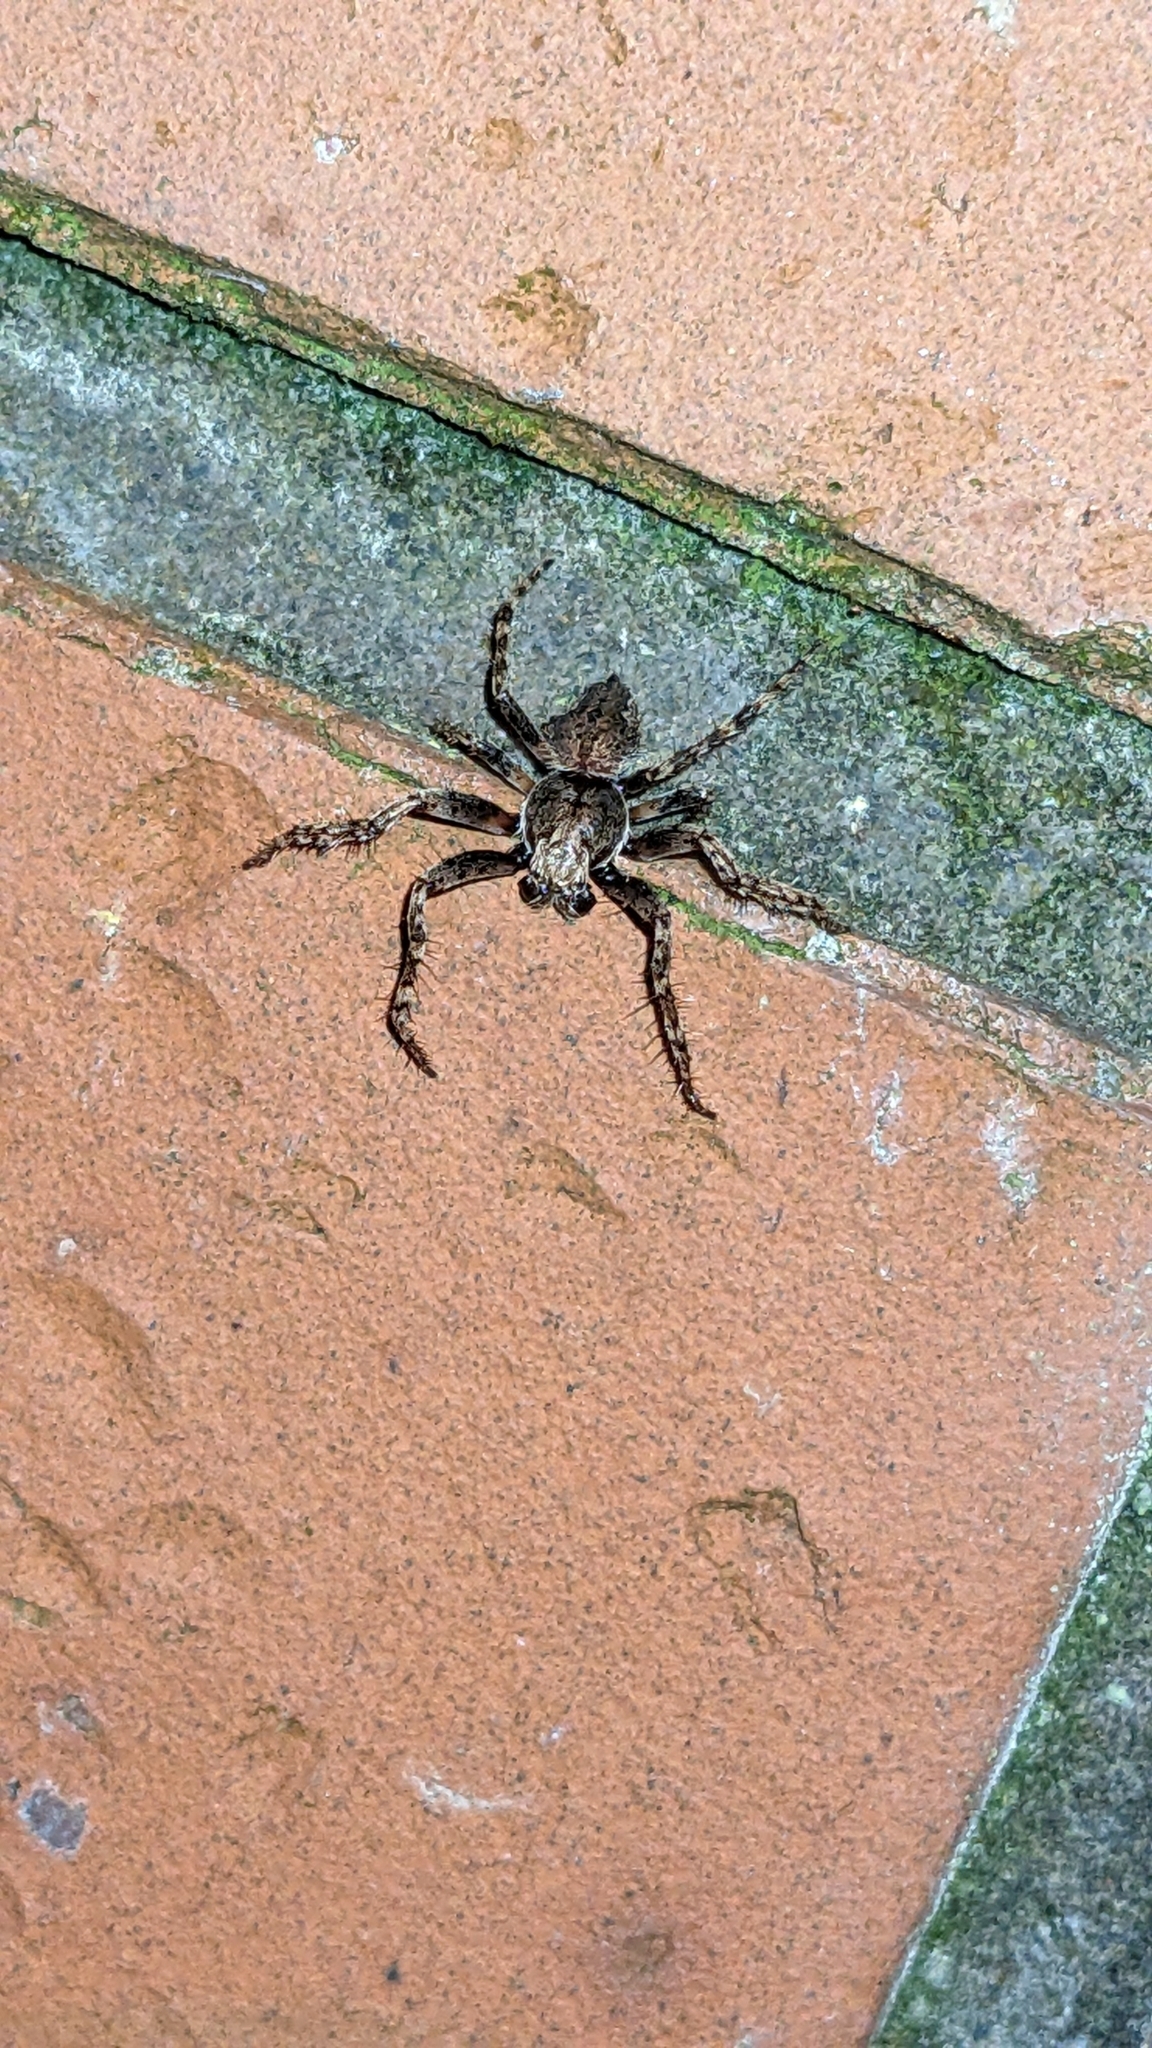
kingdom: Animalia
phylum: Arthropoda
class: Arachnida
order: Araneae
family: Araneidae
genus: Eriophora
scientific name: Eriophora pustulosa
